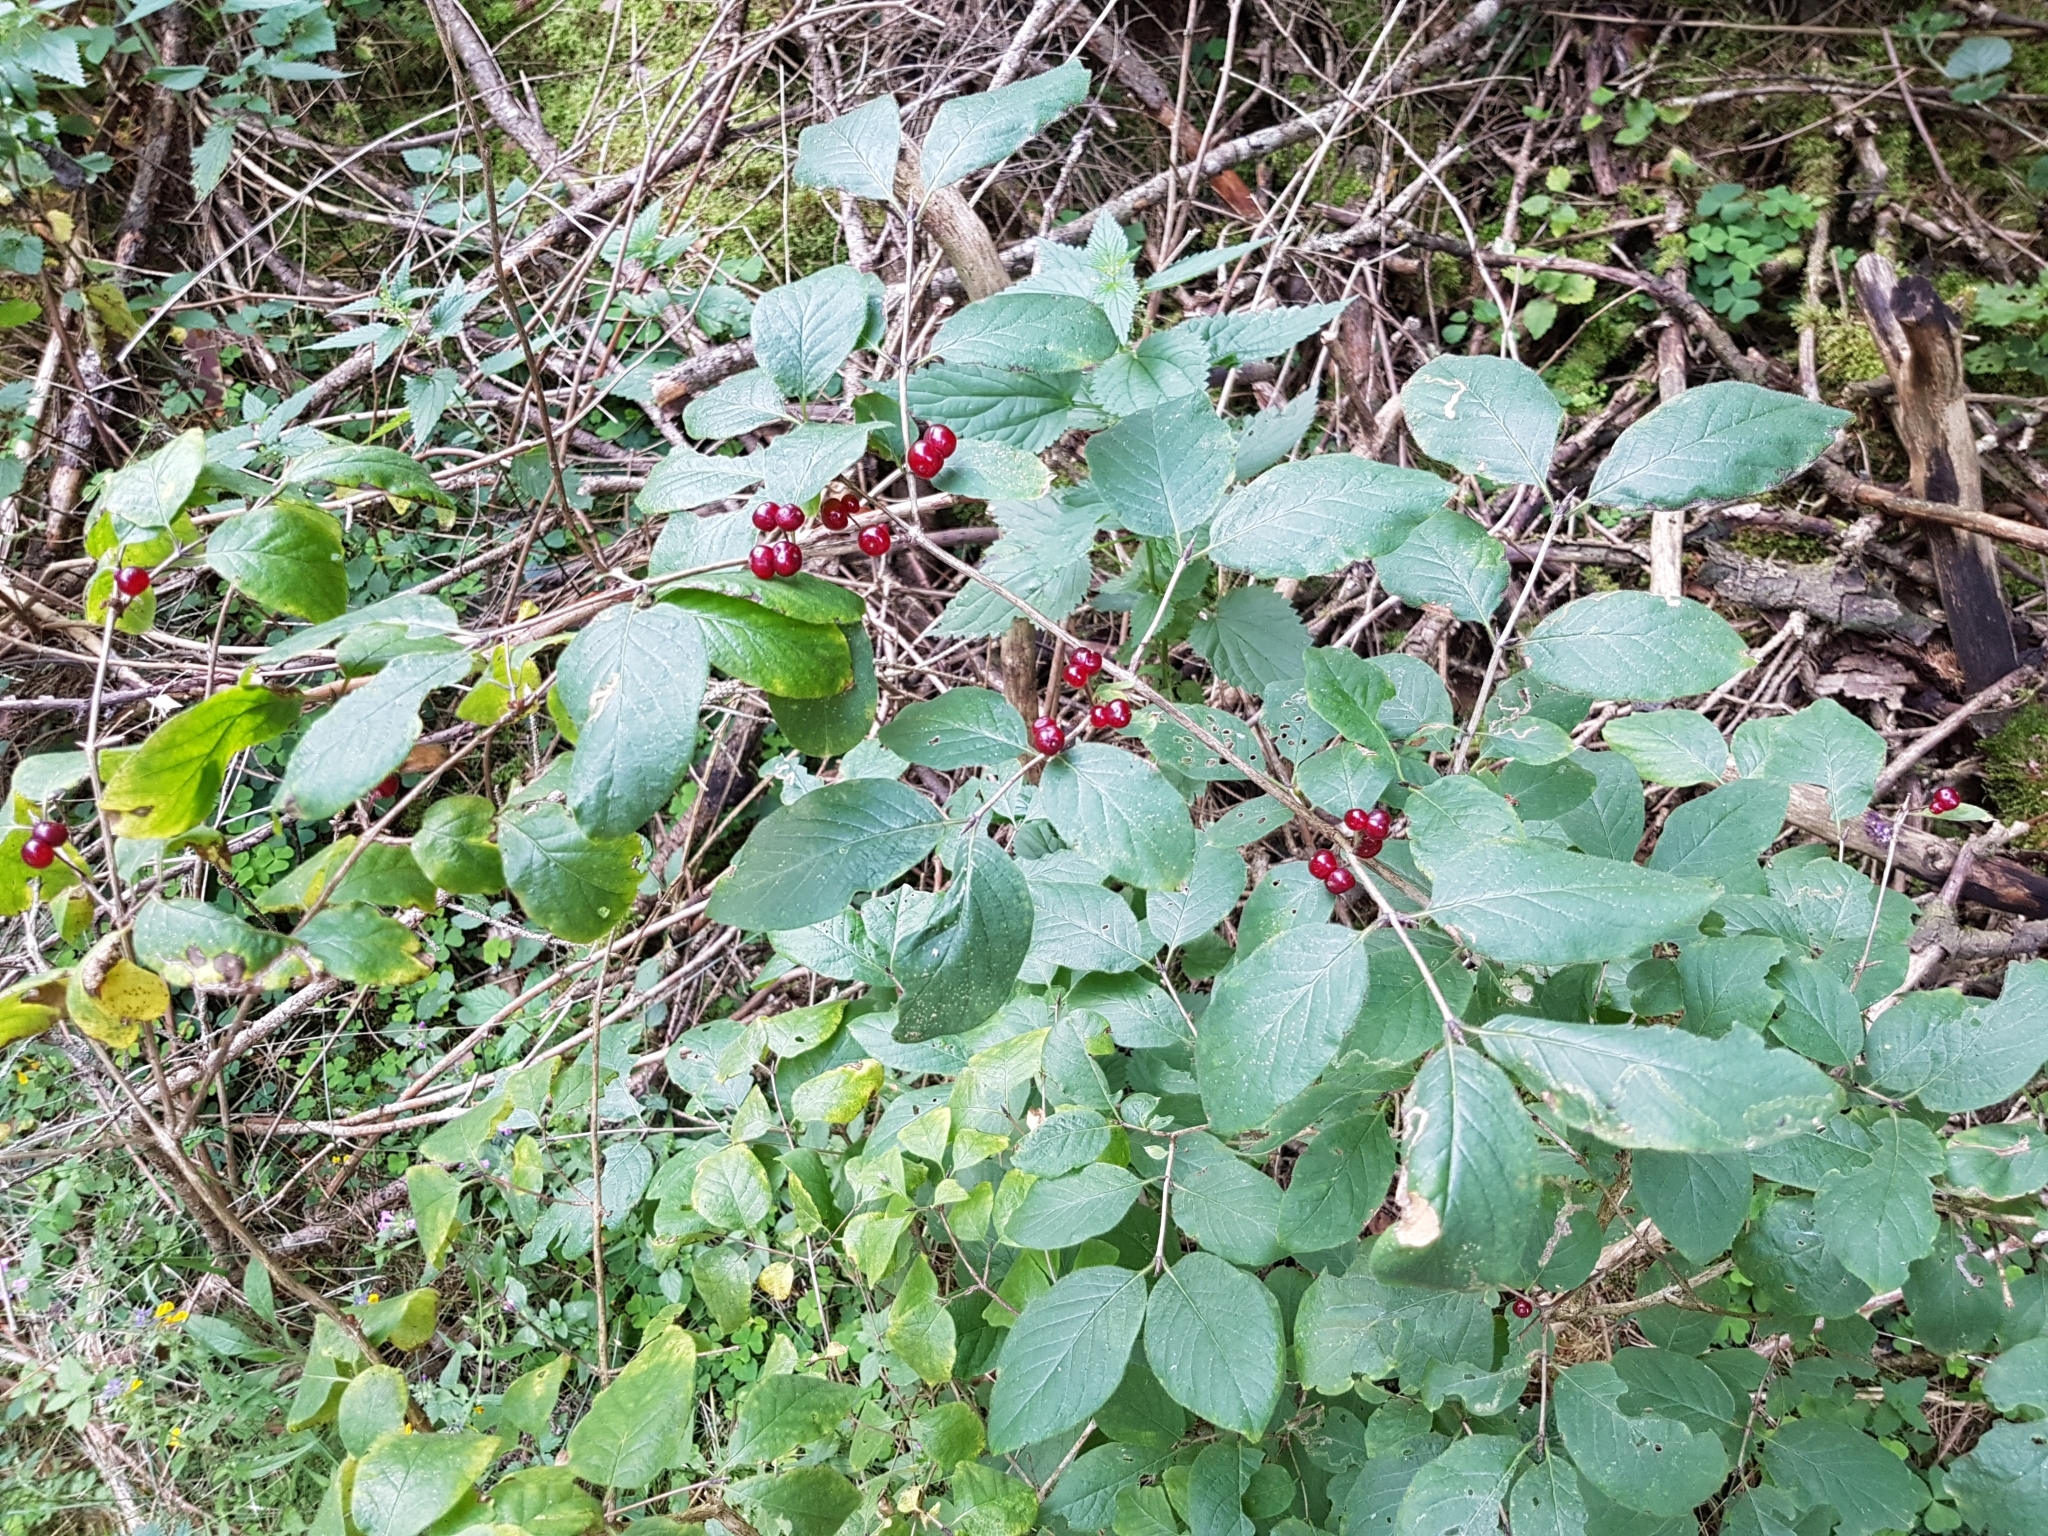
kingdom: Plantae
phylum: Tracheophyta
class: Magnoliopsida
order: Dipsacales
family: Caprifoliaceae
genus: Lonicera
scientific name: Lonicera xylosteum
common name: Fly honeysuckle
